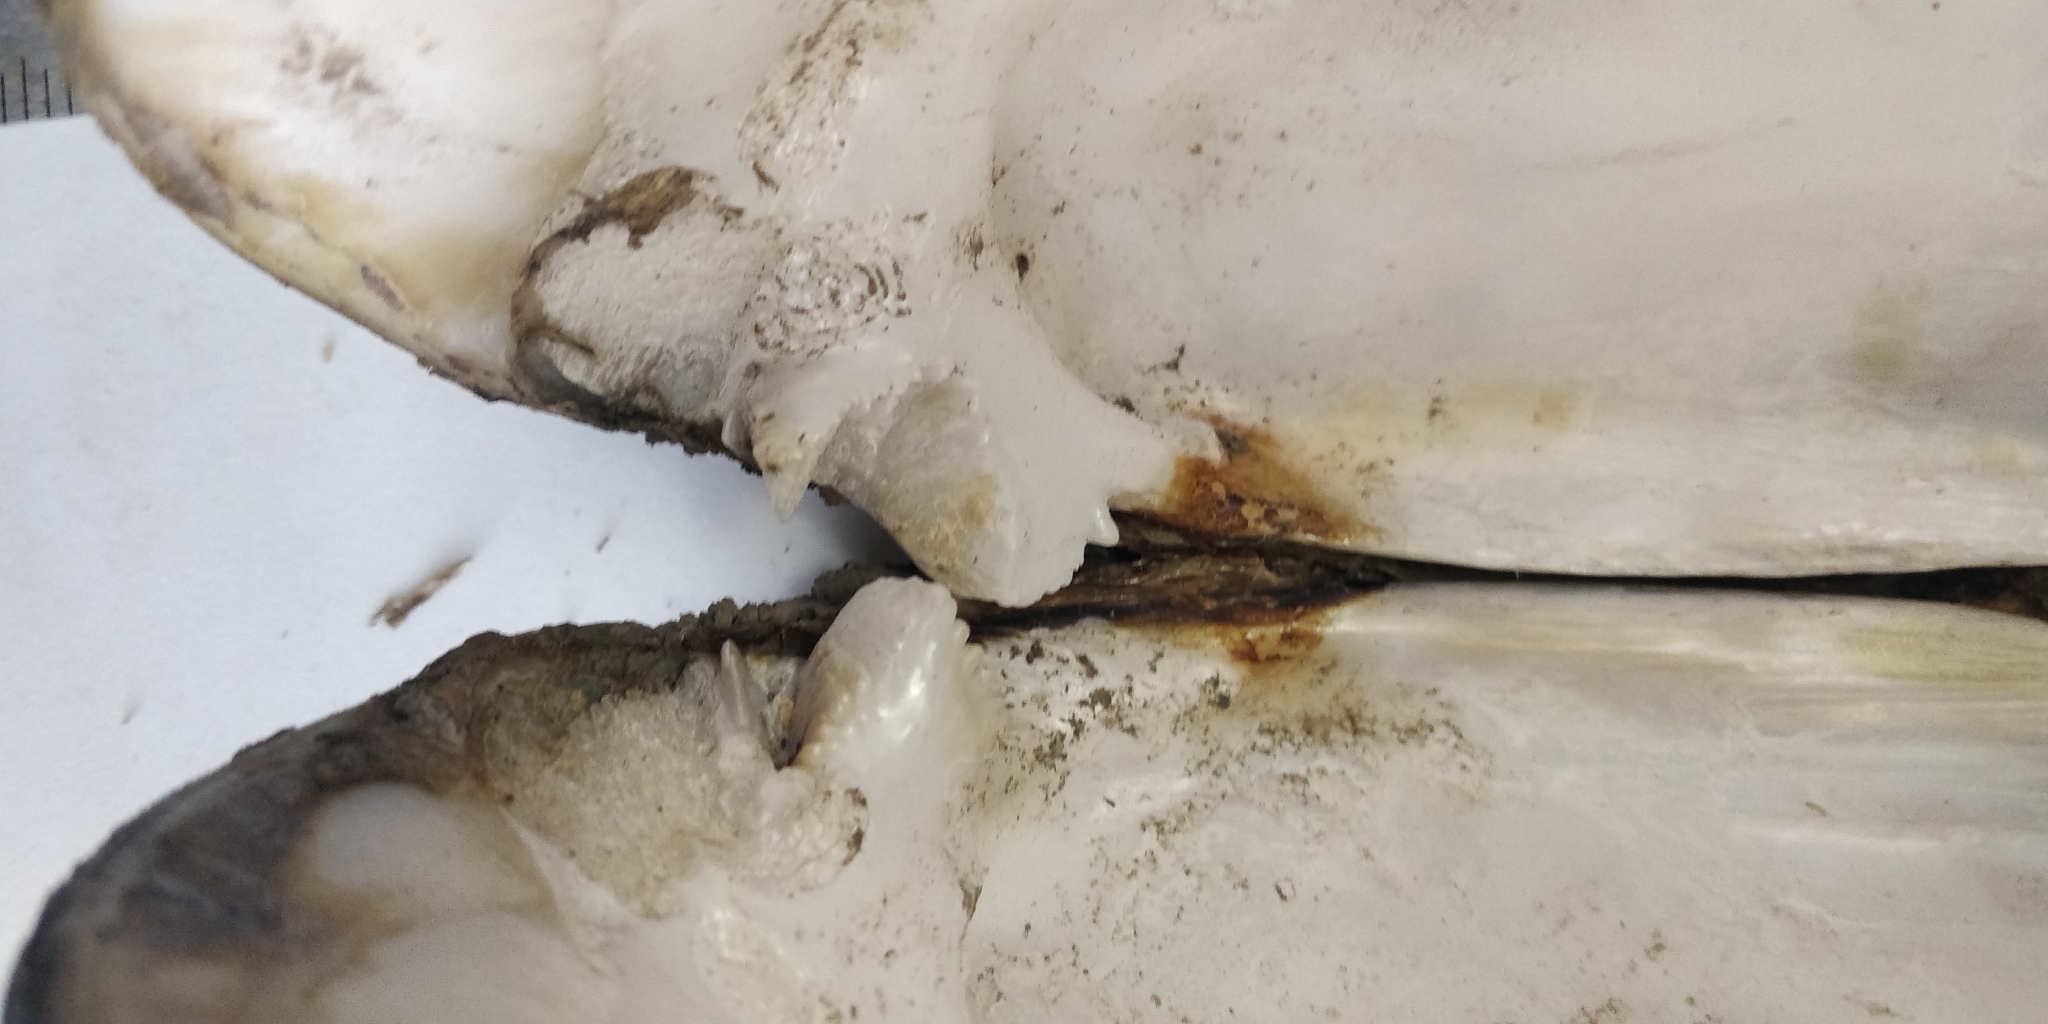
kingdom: Animalia
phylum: Mollusca
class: Bivalvia
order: Unionida
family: Unionidae
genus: Amblema
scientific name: Amblema plicata
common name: Threeridge
